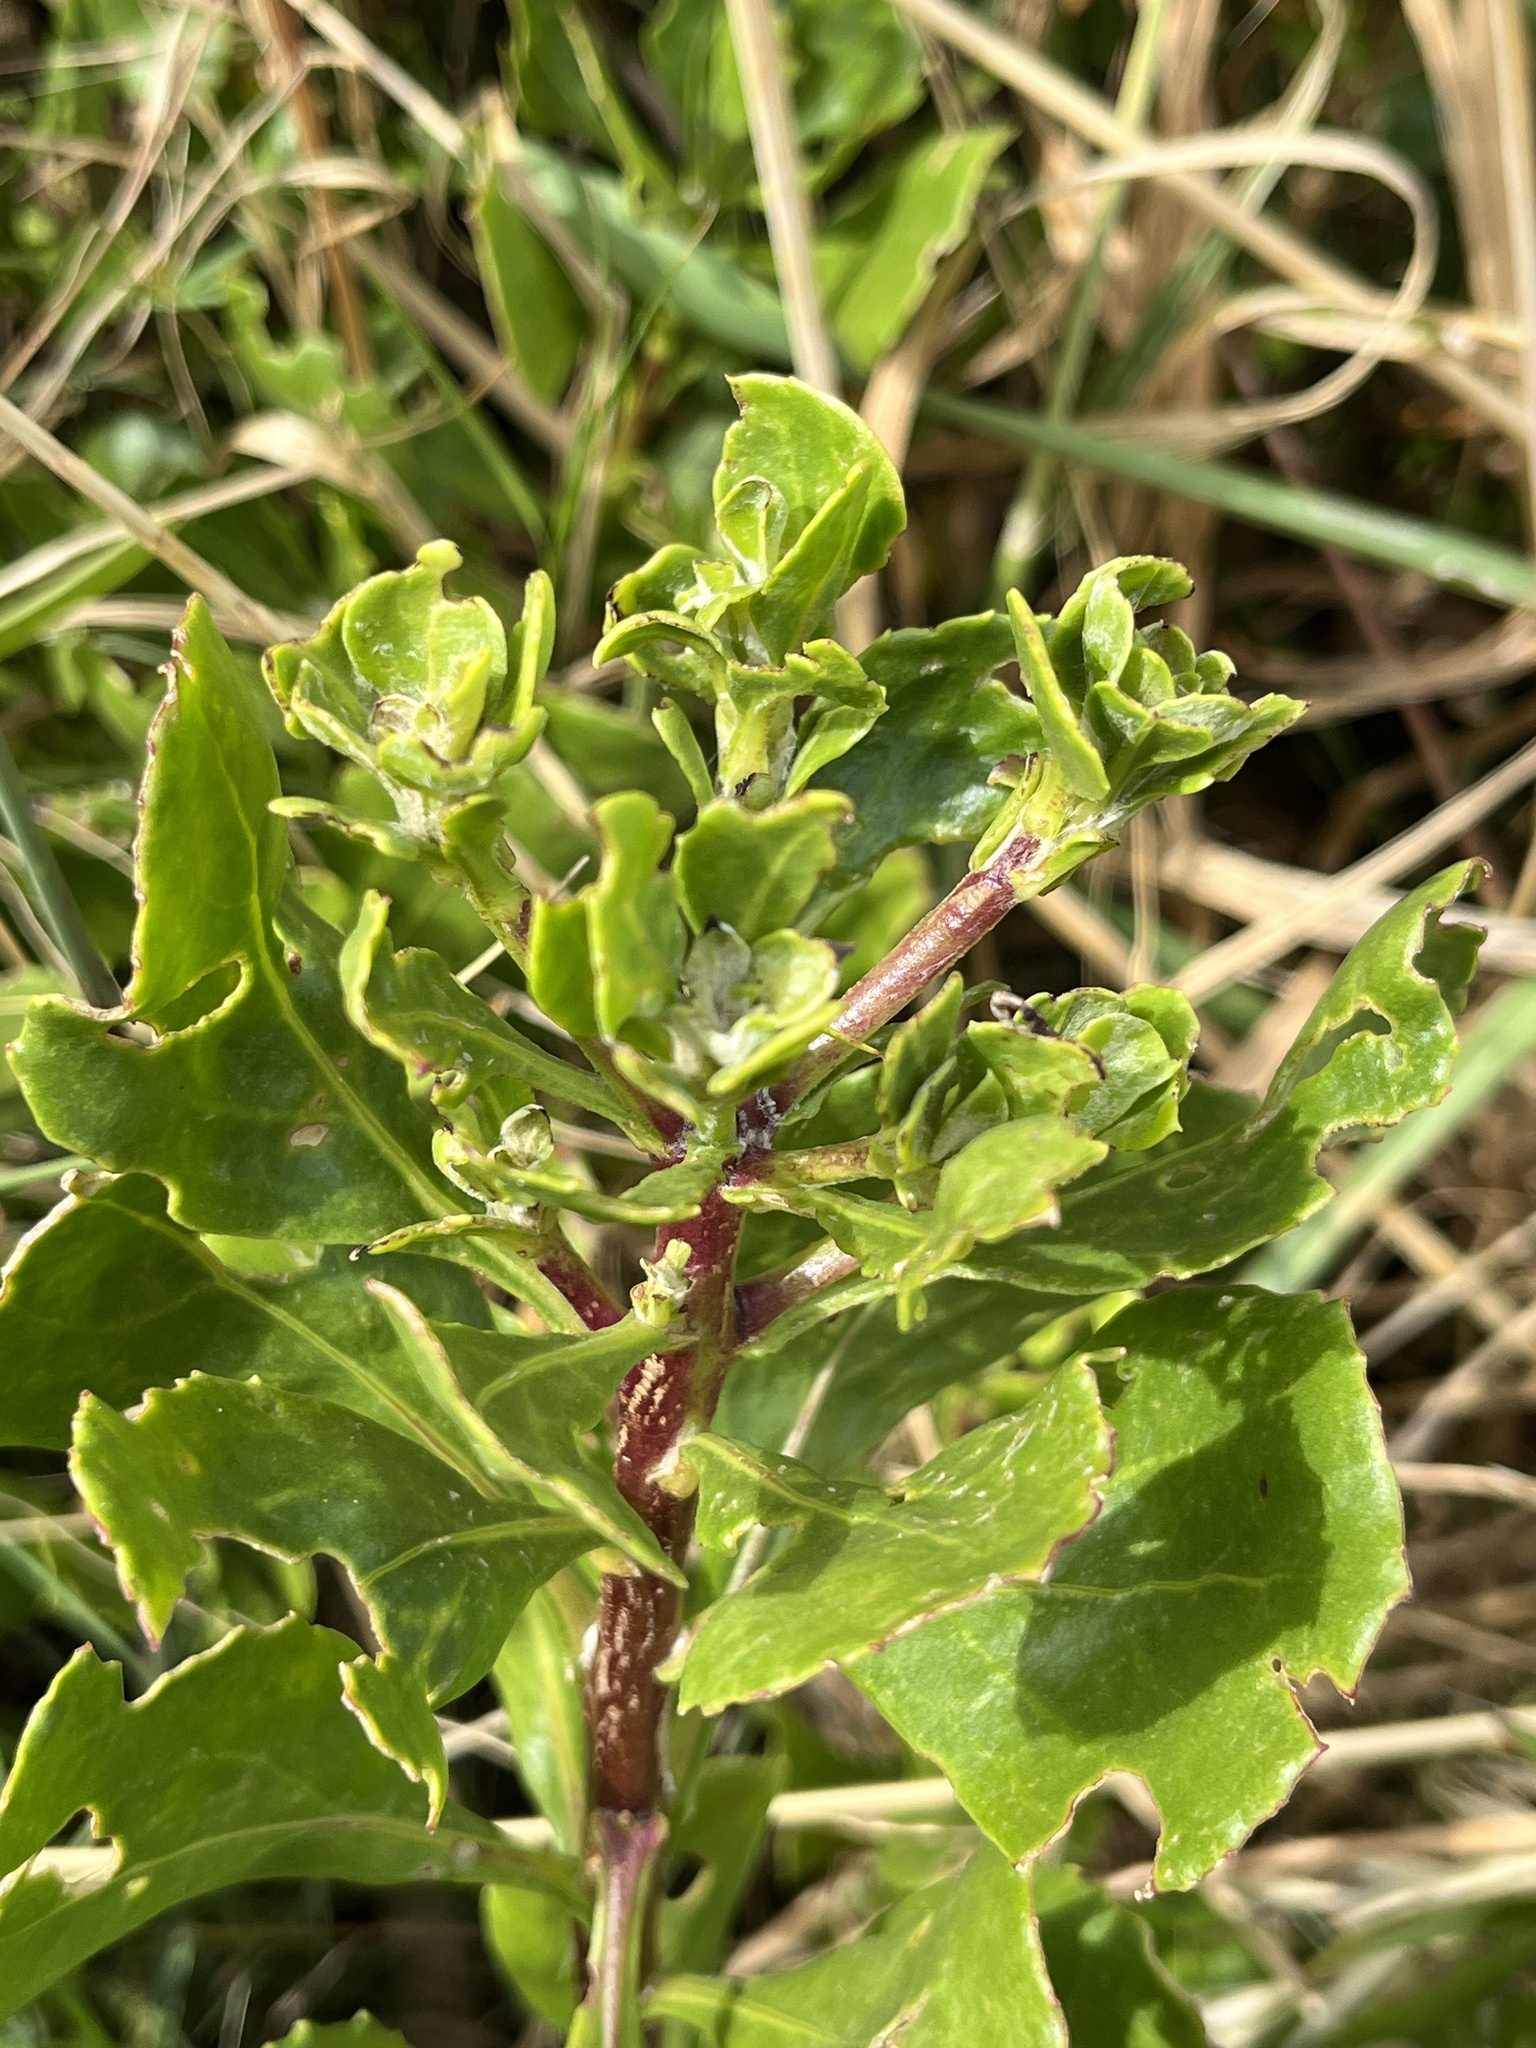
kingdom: Plantae
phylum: Tracheophyta
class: Magnoliopsida
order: Asterales
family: Asteraceae
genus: Osteospermum
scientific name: Osteospermum moniliferum
